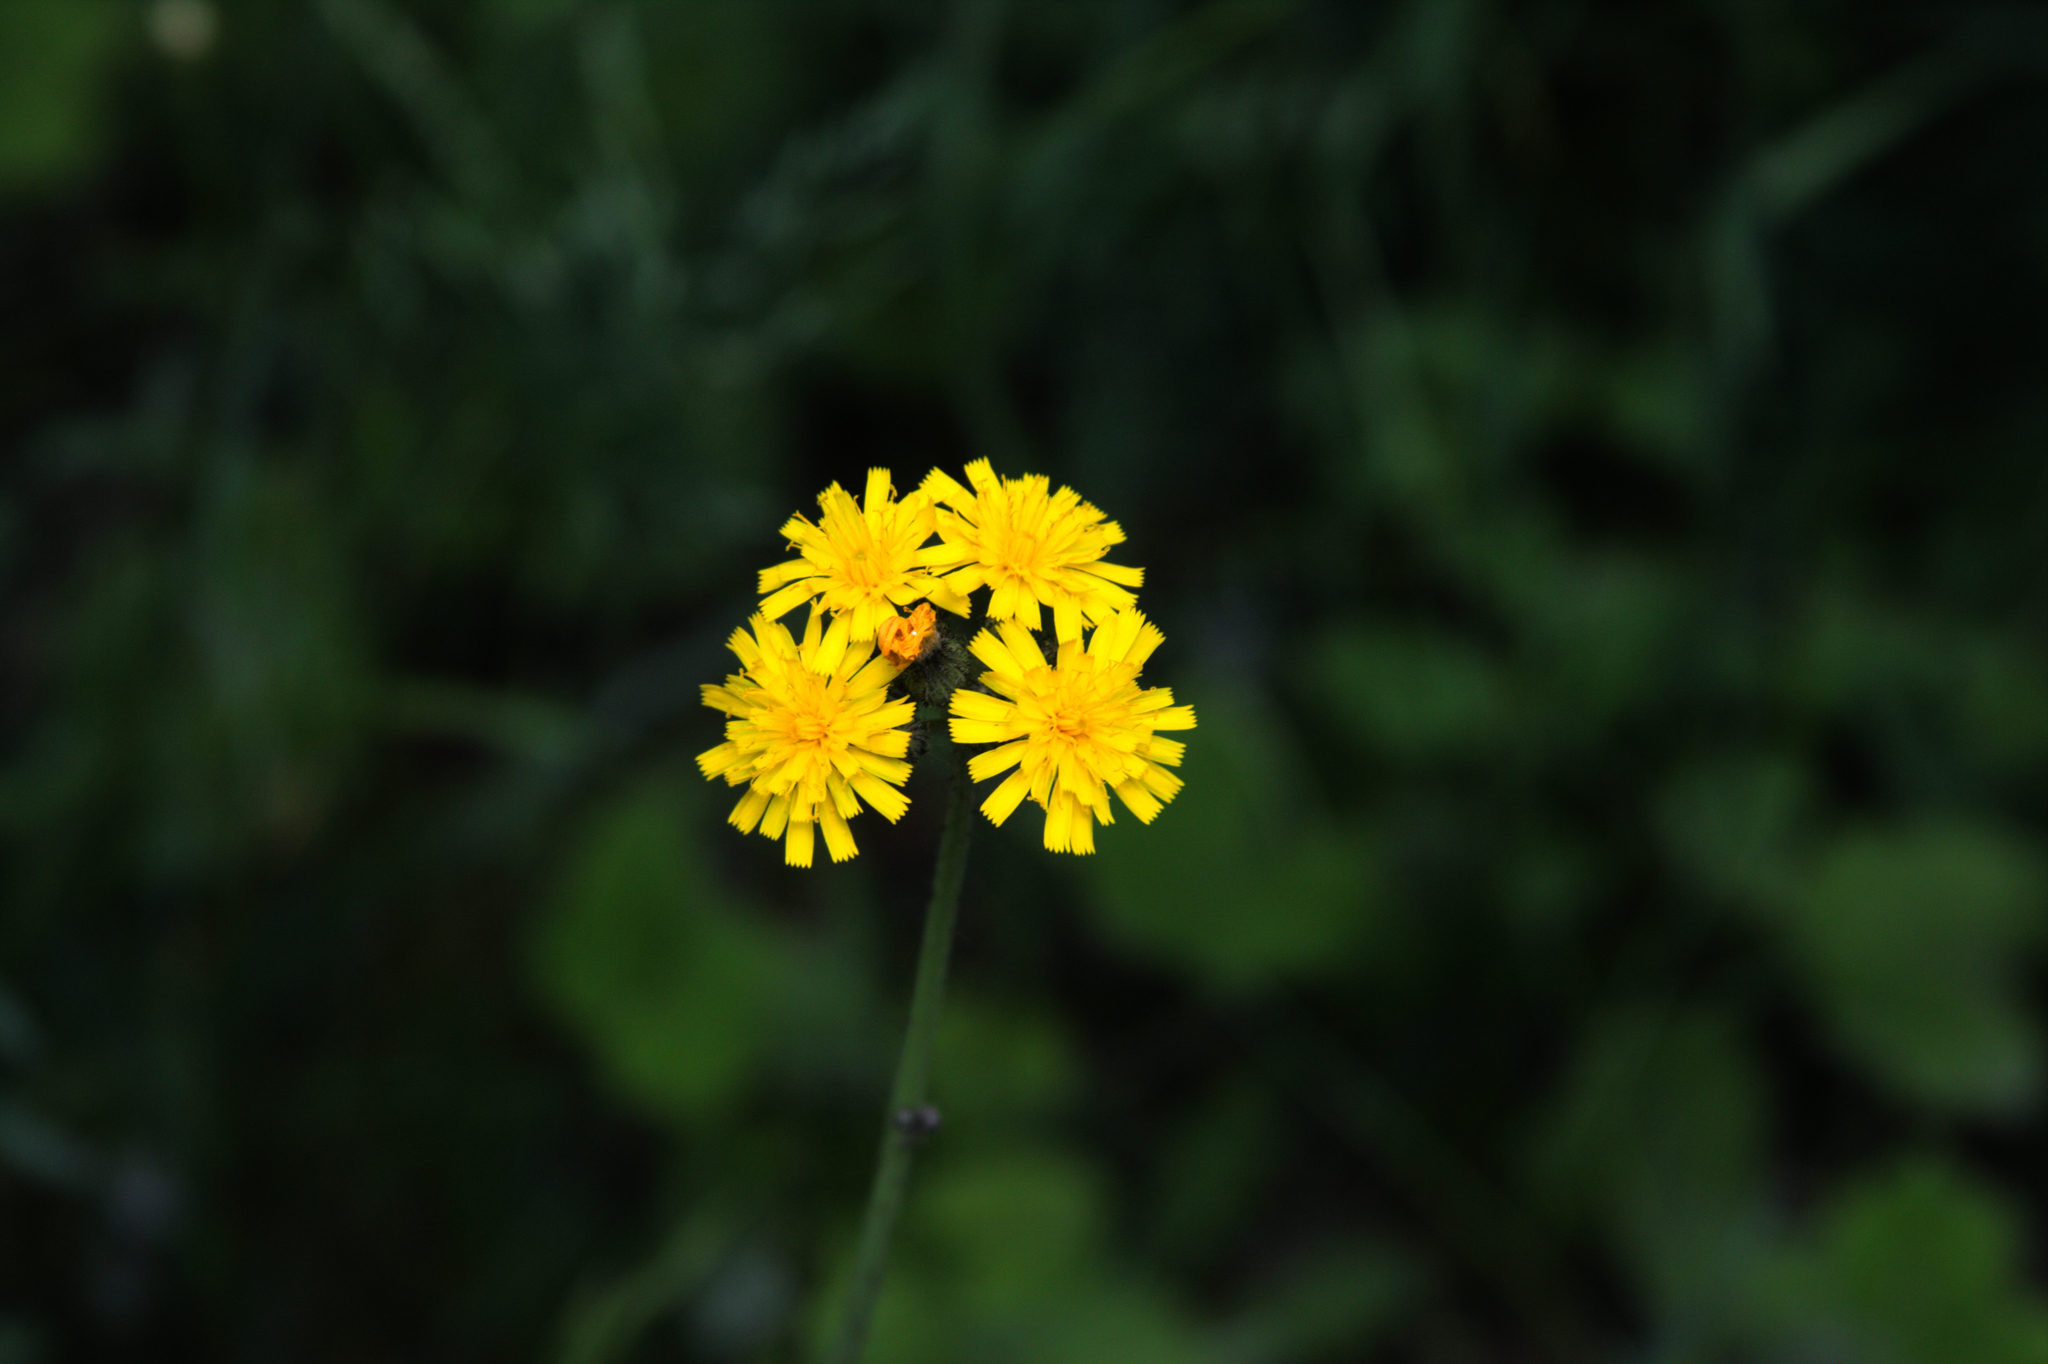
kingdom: Plantae
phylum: Tracheophyta
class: Magnoliopsida
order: Asterales
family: Asteraceae
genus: Pilosella
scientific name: Pilosella caespitosa
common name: Yellow fox-and-cubs
